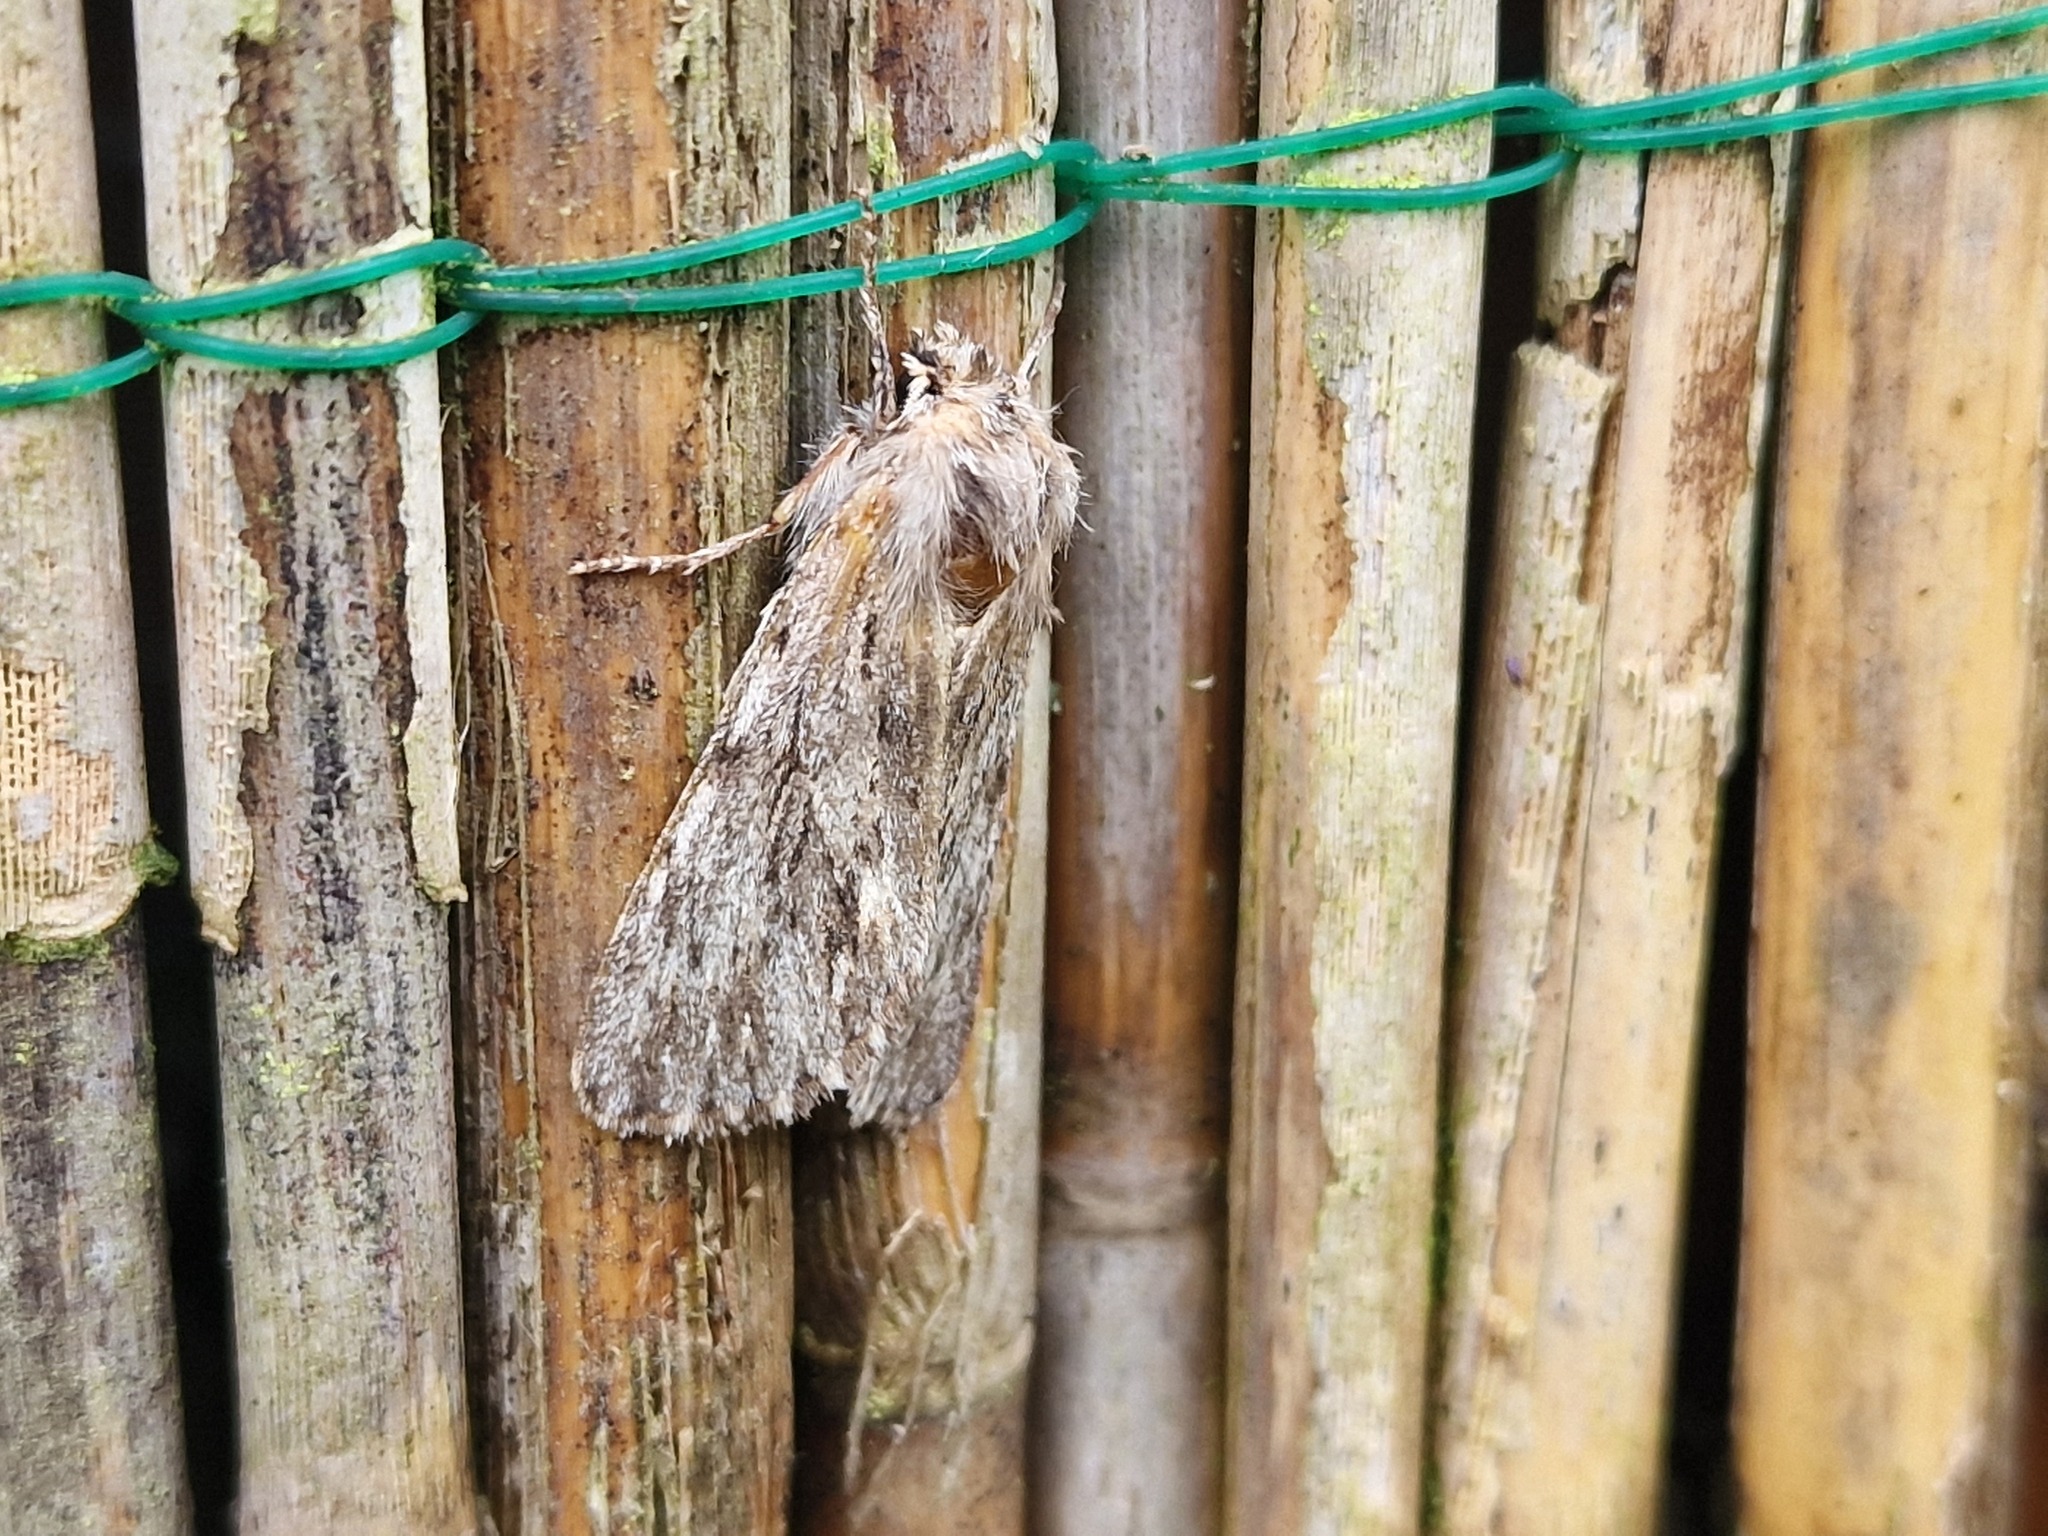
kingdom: Animalia
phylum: Arthropoda
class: Insecta
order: Lepidoptera
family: Noctuidae
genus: Asteroscopus
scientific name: Asteroscopus sphinx
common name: The sprawler
